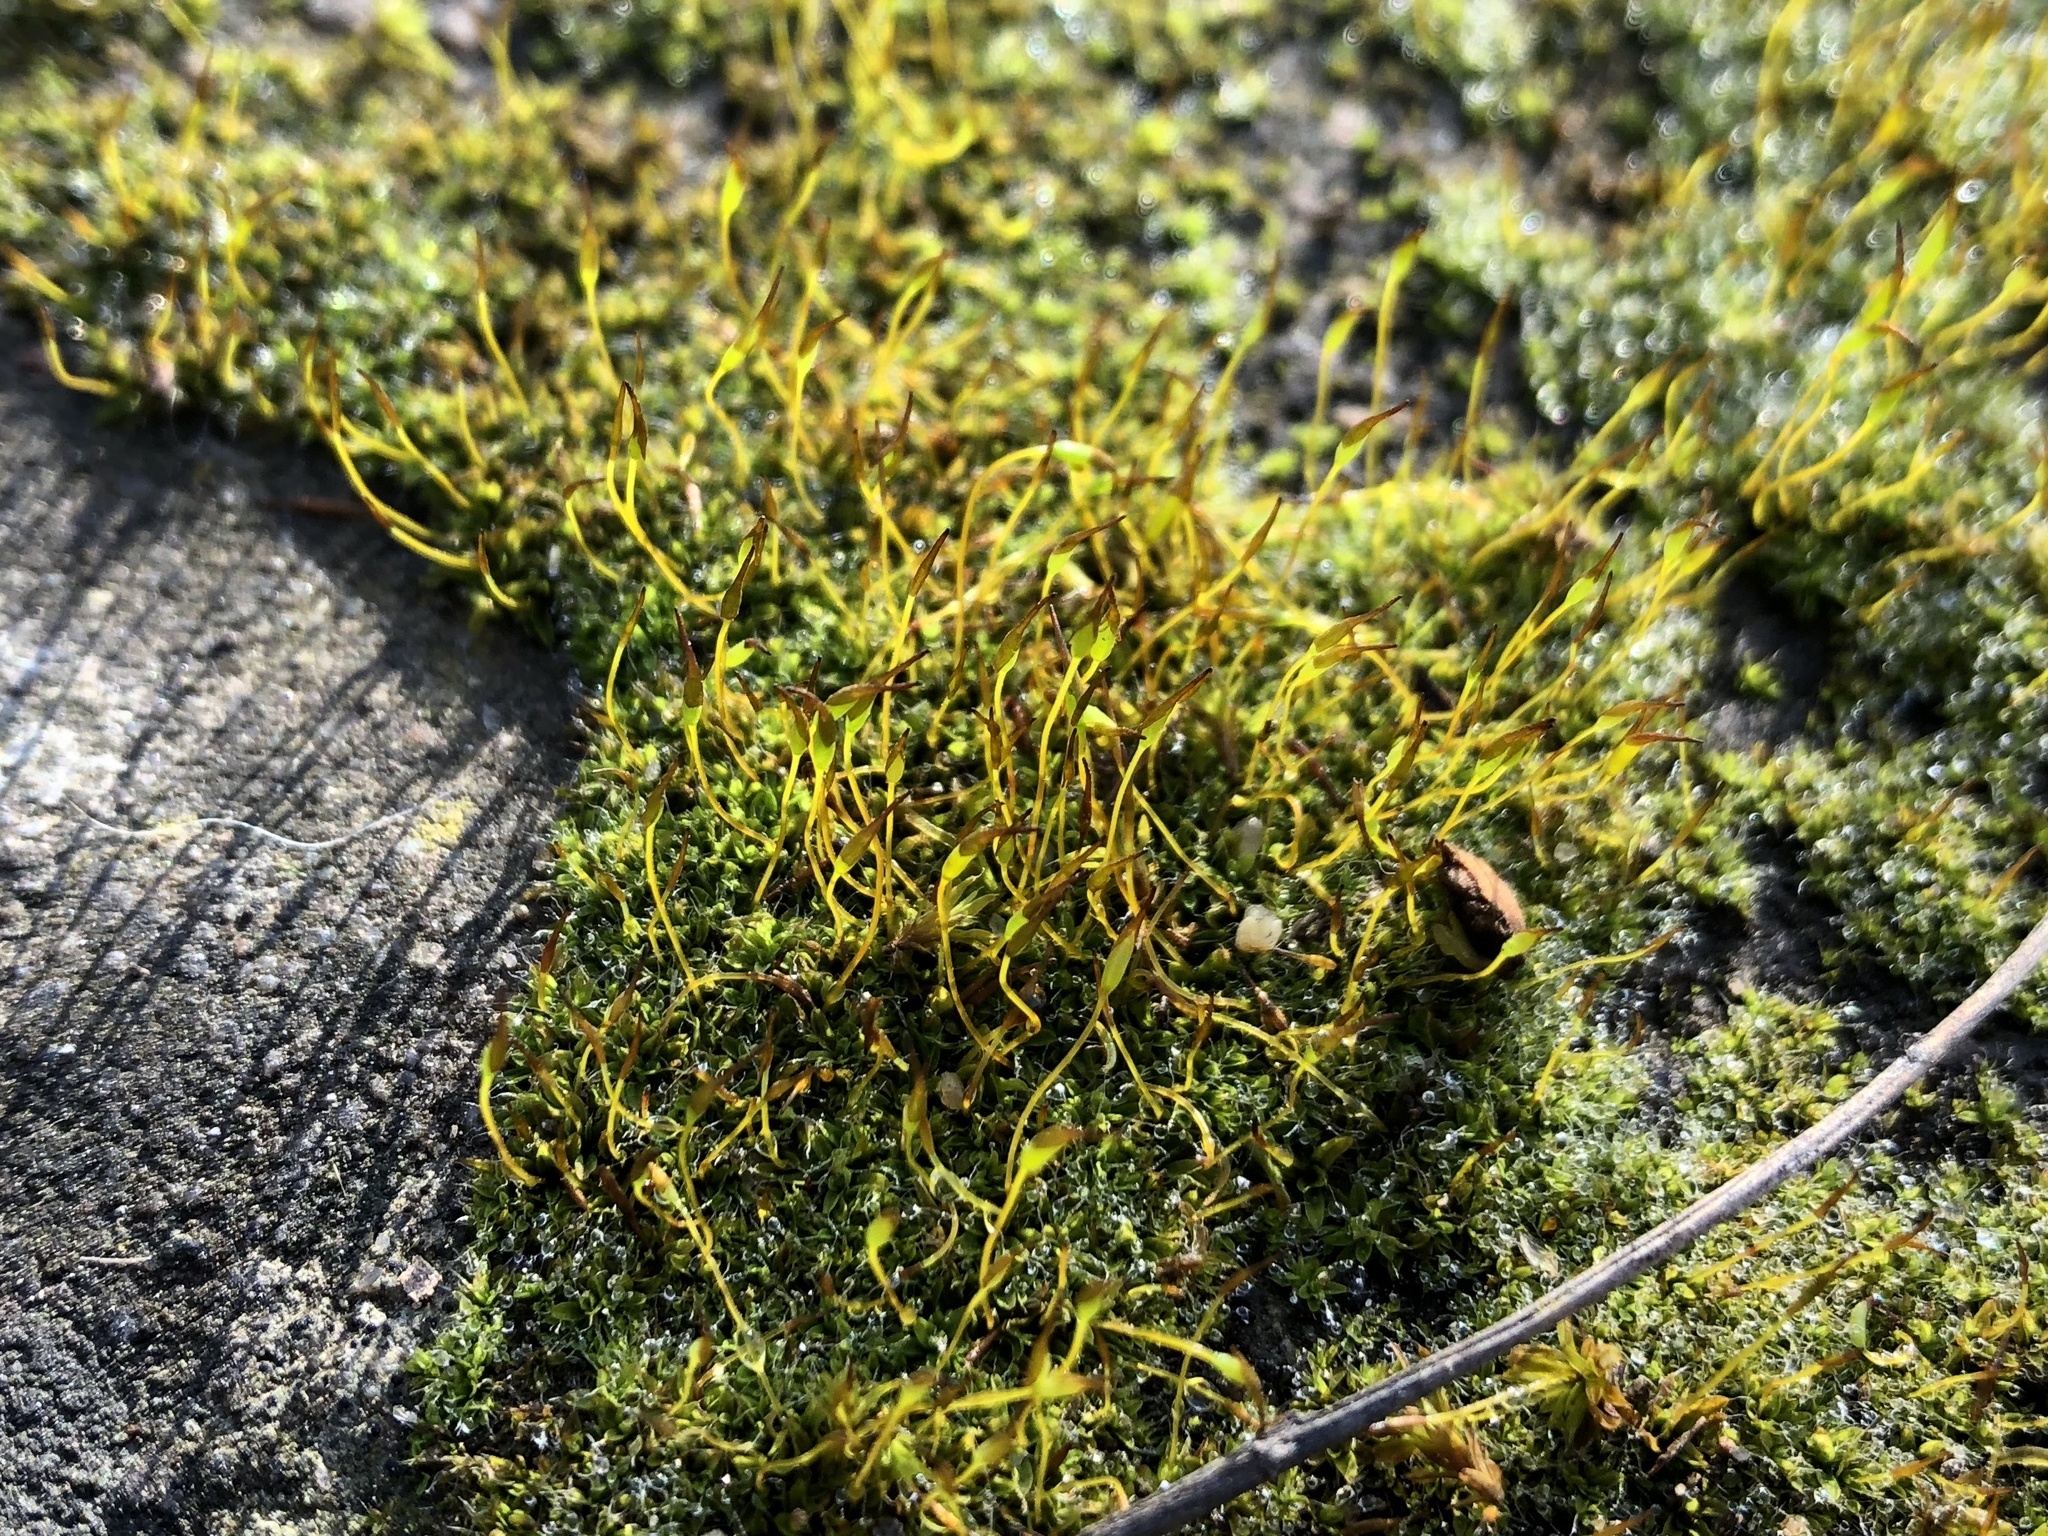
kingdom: Plantae
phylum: Bryophyta
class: Bryopsida
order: Pottiales
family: Pottiaceae
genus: Tortula
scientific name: Tortula muralis
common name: Wall screw-moss
